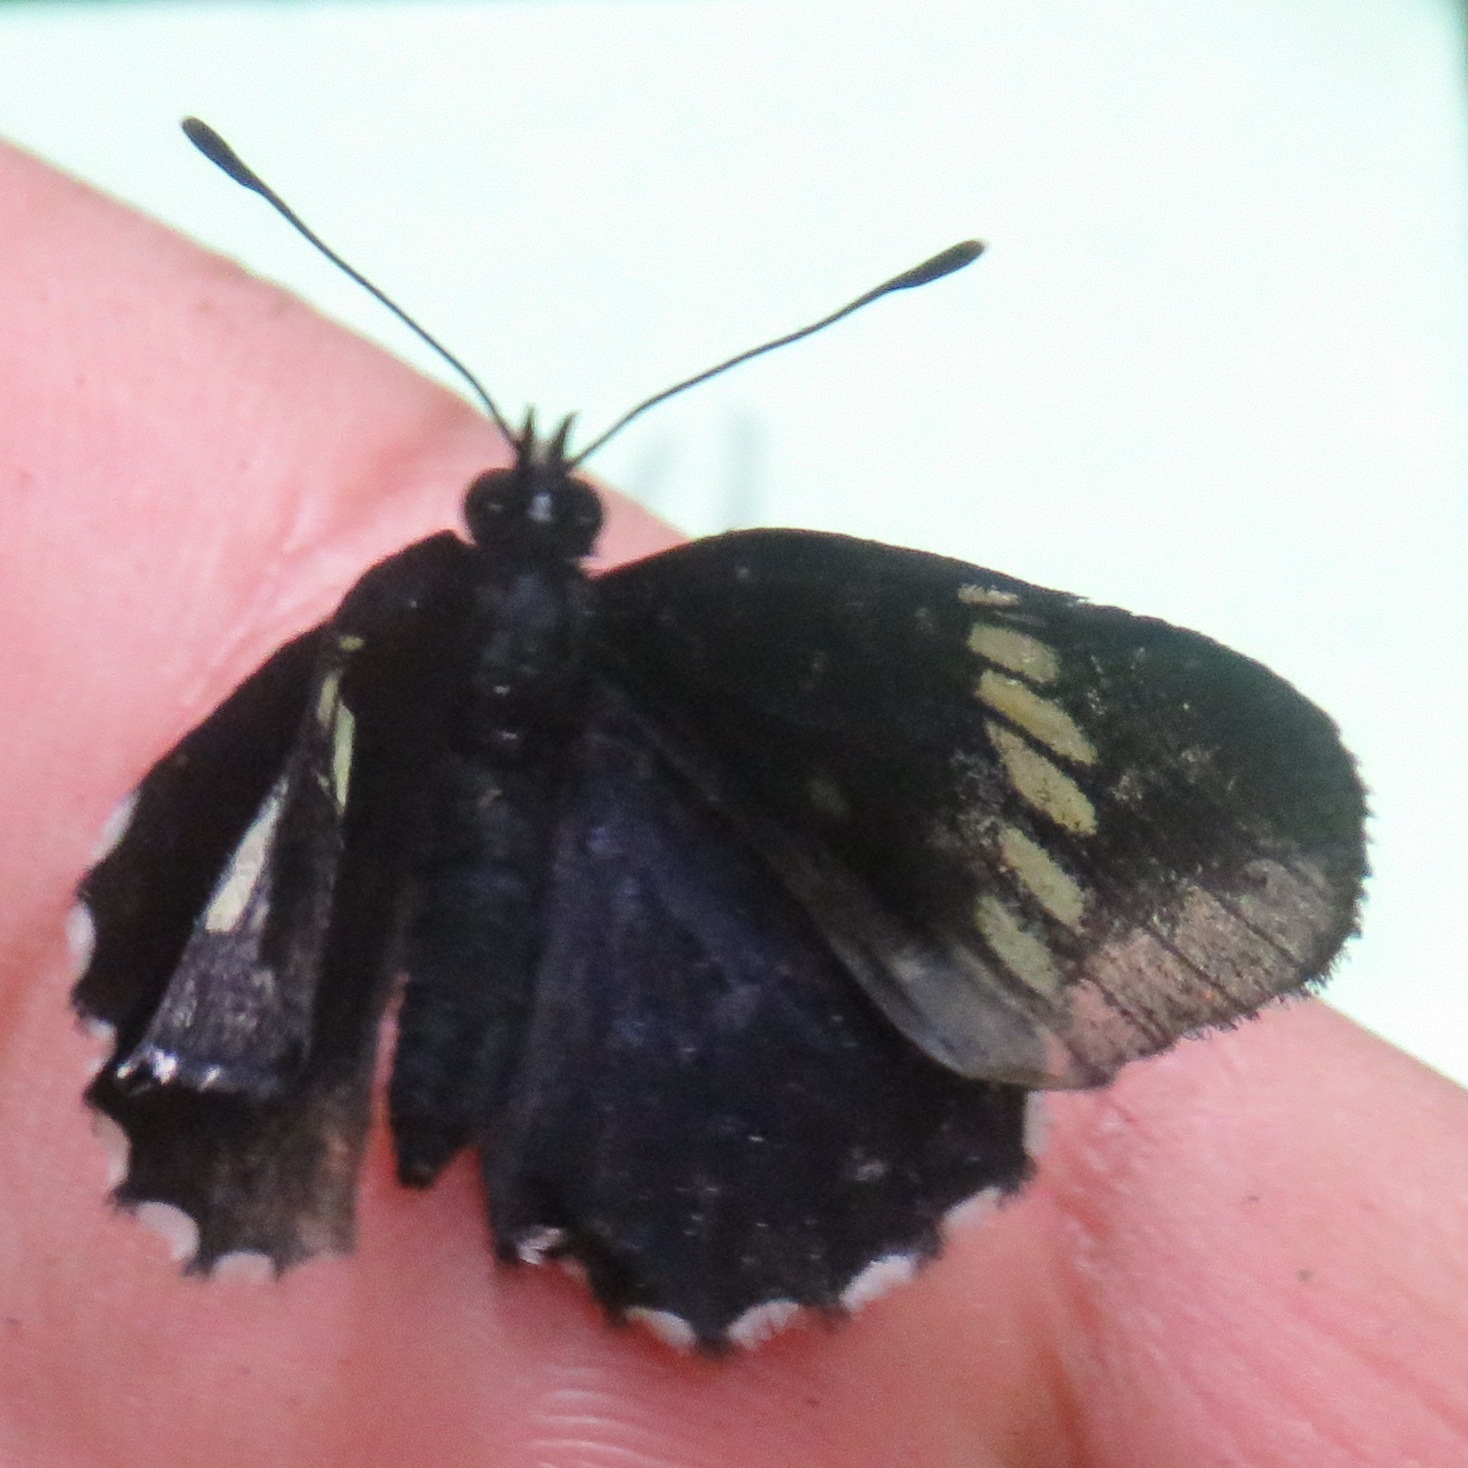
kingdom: Animalia
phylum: Arthropoda
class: Insecta
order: Lepidoptera
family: Nymphalidae
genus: Chlosyne
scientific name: Chlosyne melanarge
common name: Cream-banded checkerspot
